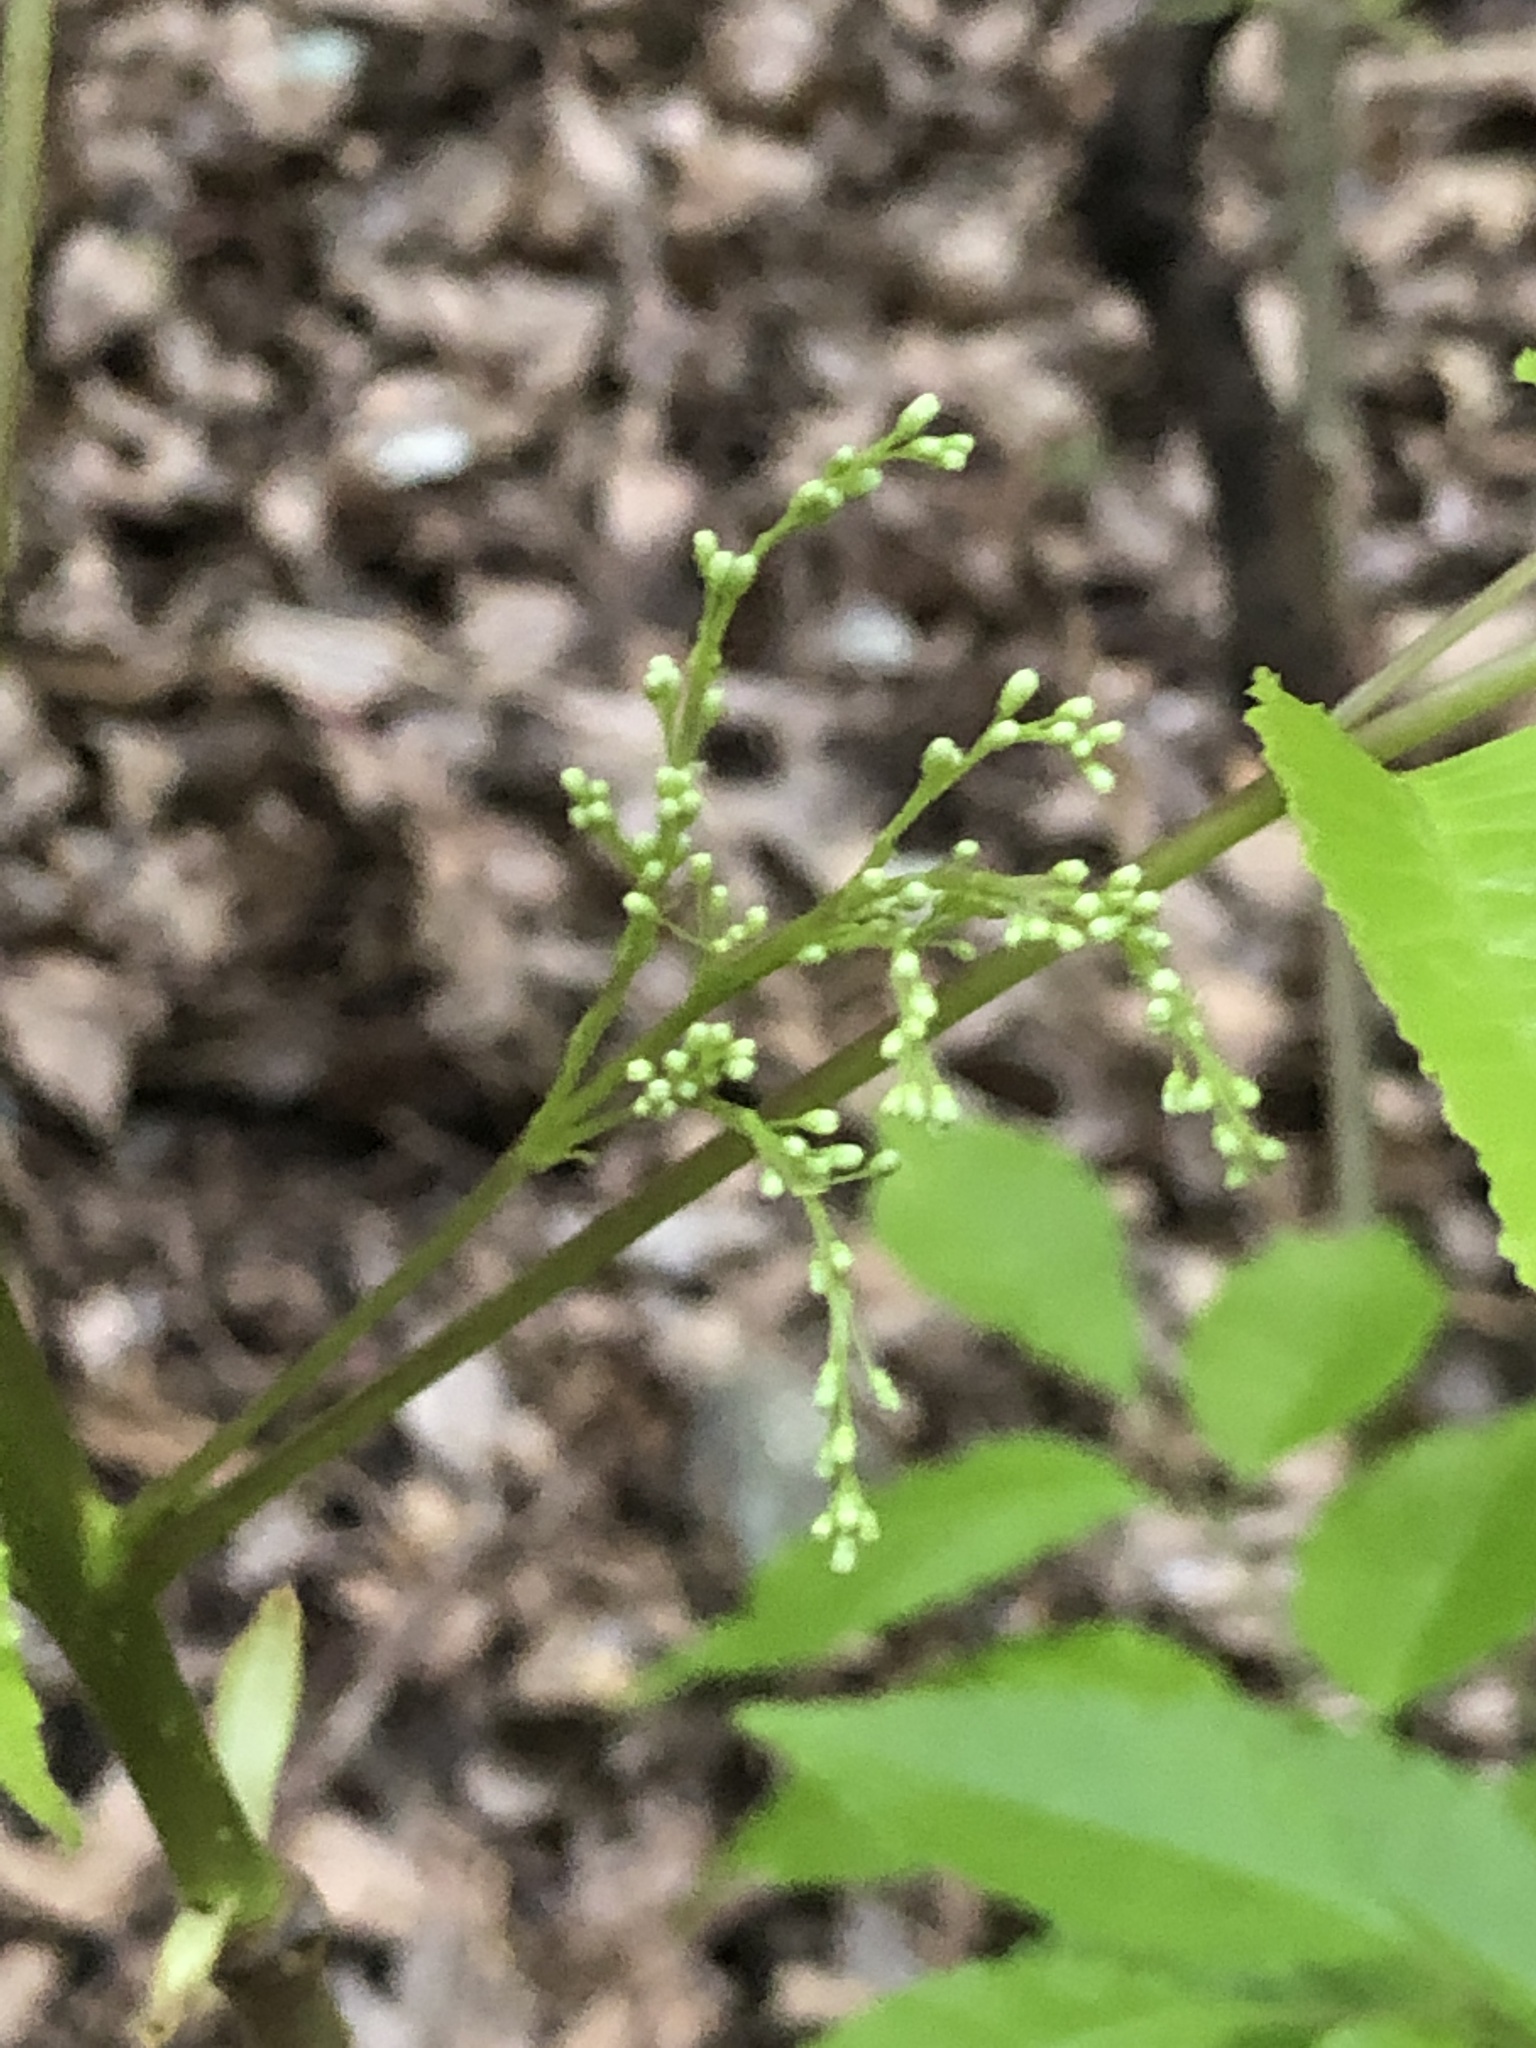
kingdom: Plantae
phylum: Tracheophyta
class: Magnoliopsida
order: Lamiales
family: Oleaceae
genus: Fraxinus
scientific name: Fraxinus insularis
